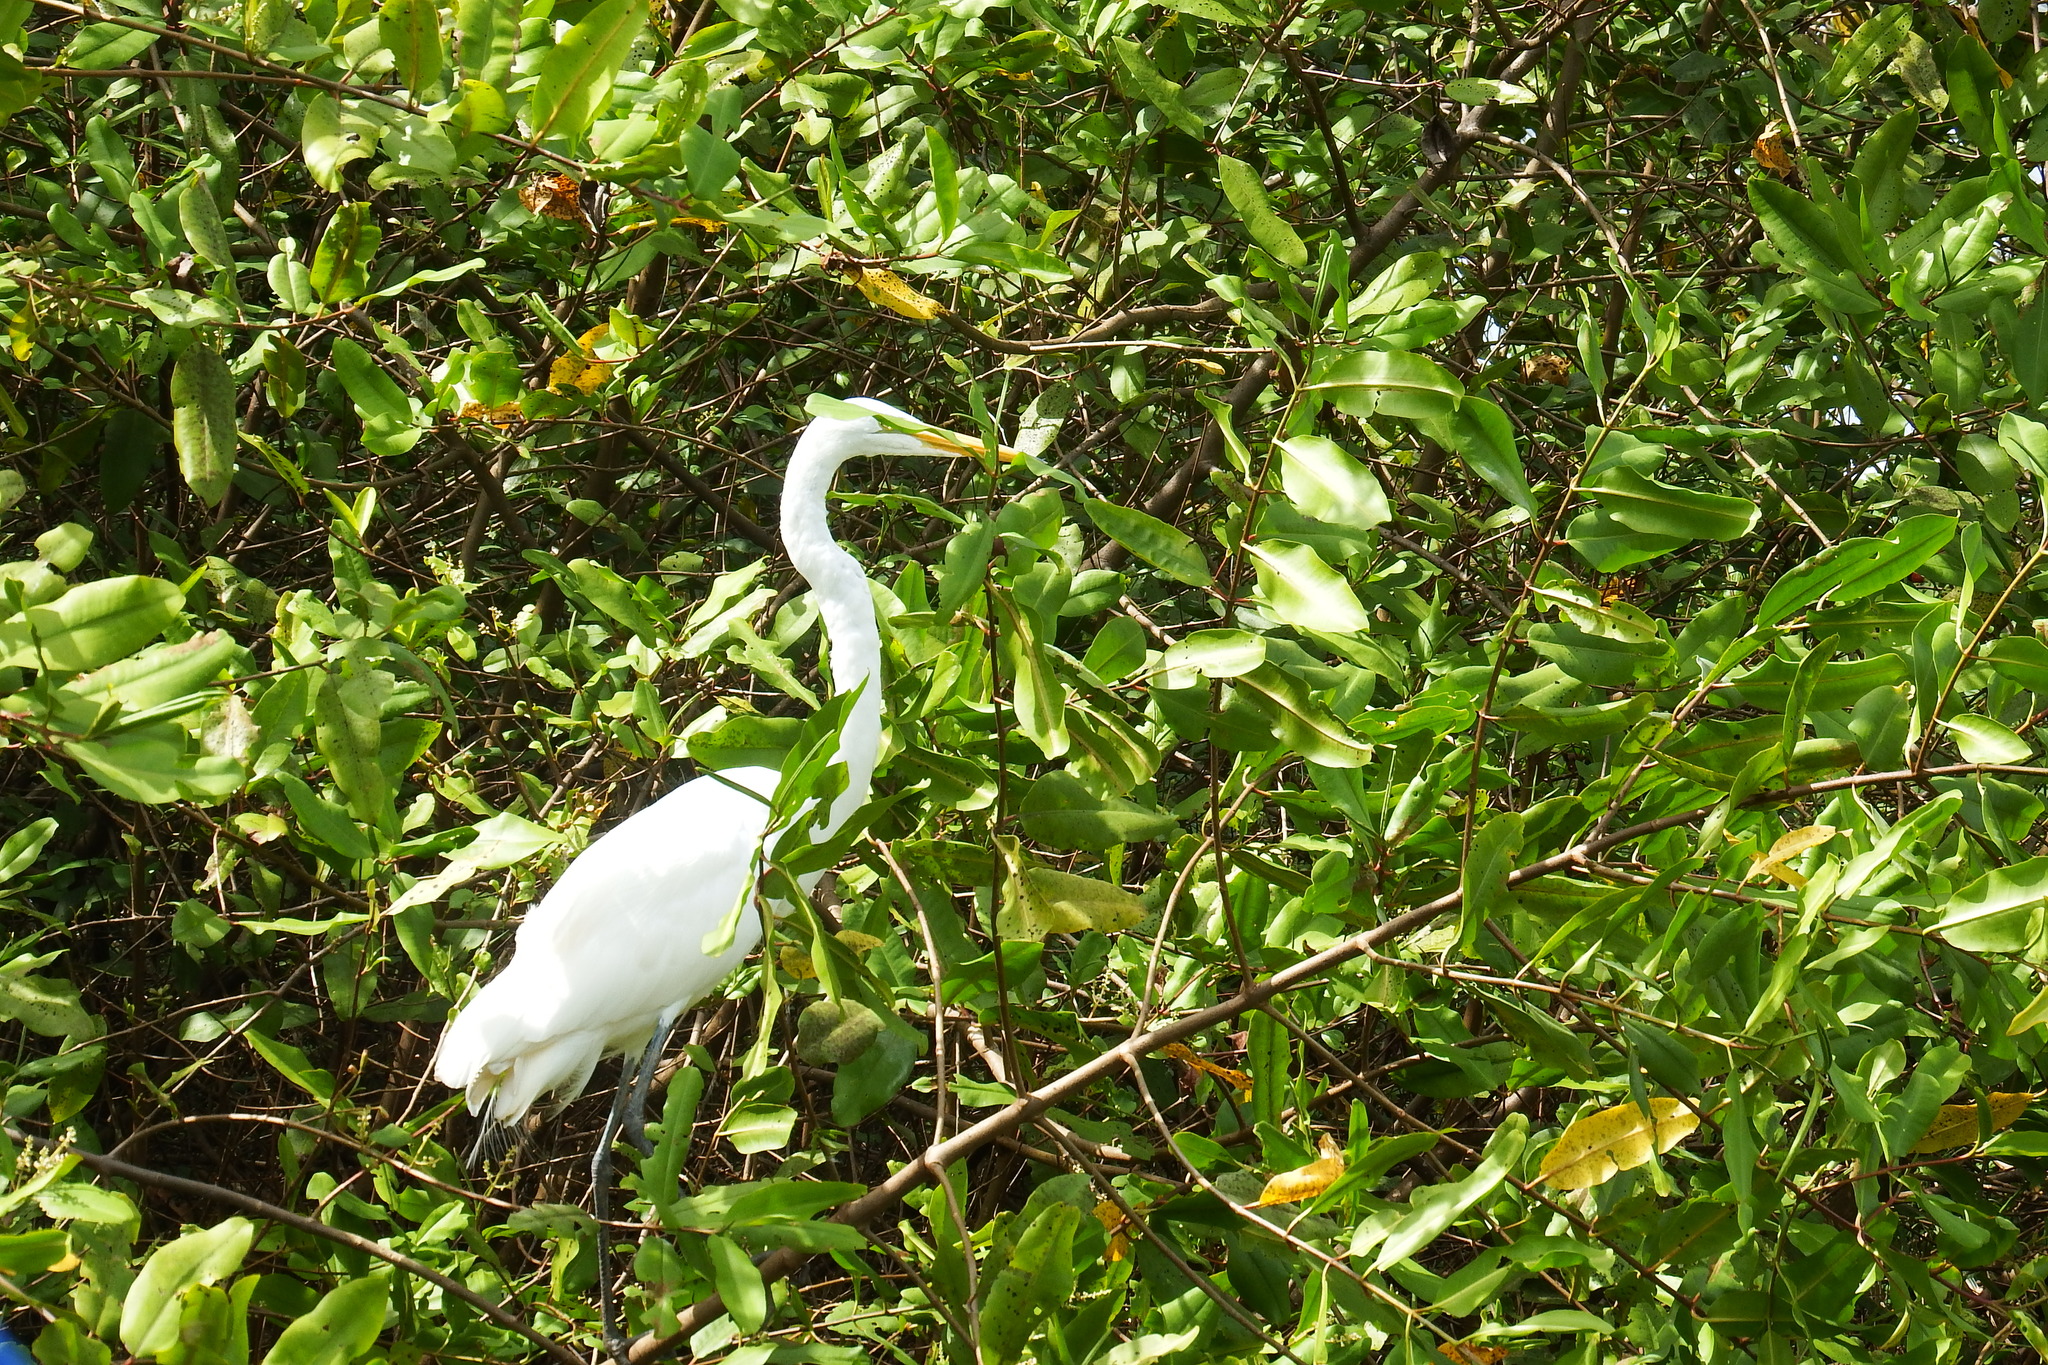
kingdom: Animalia
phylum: Chordata
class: Aves
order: Pelecaniformes
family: Ardeidae
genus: Ardea
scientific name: Ardea alba
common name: Great egret
